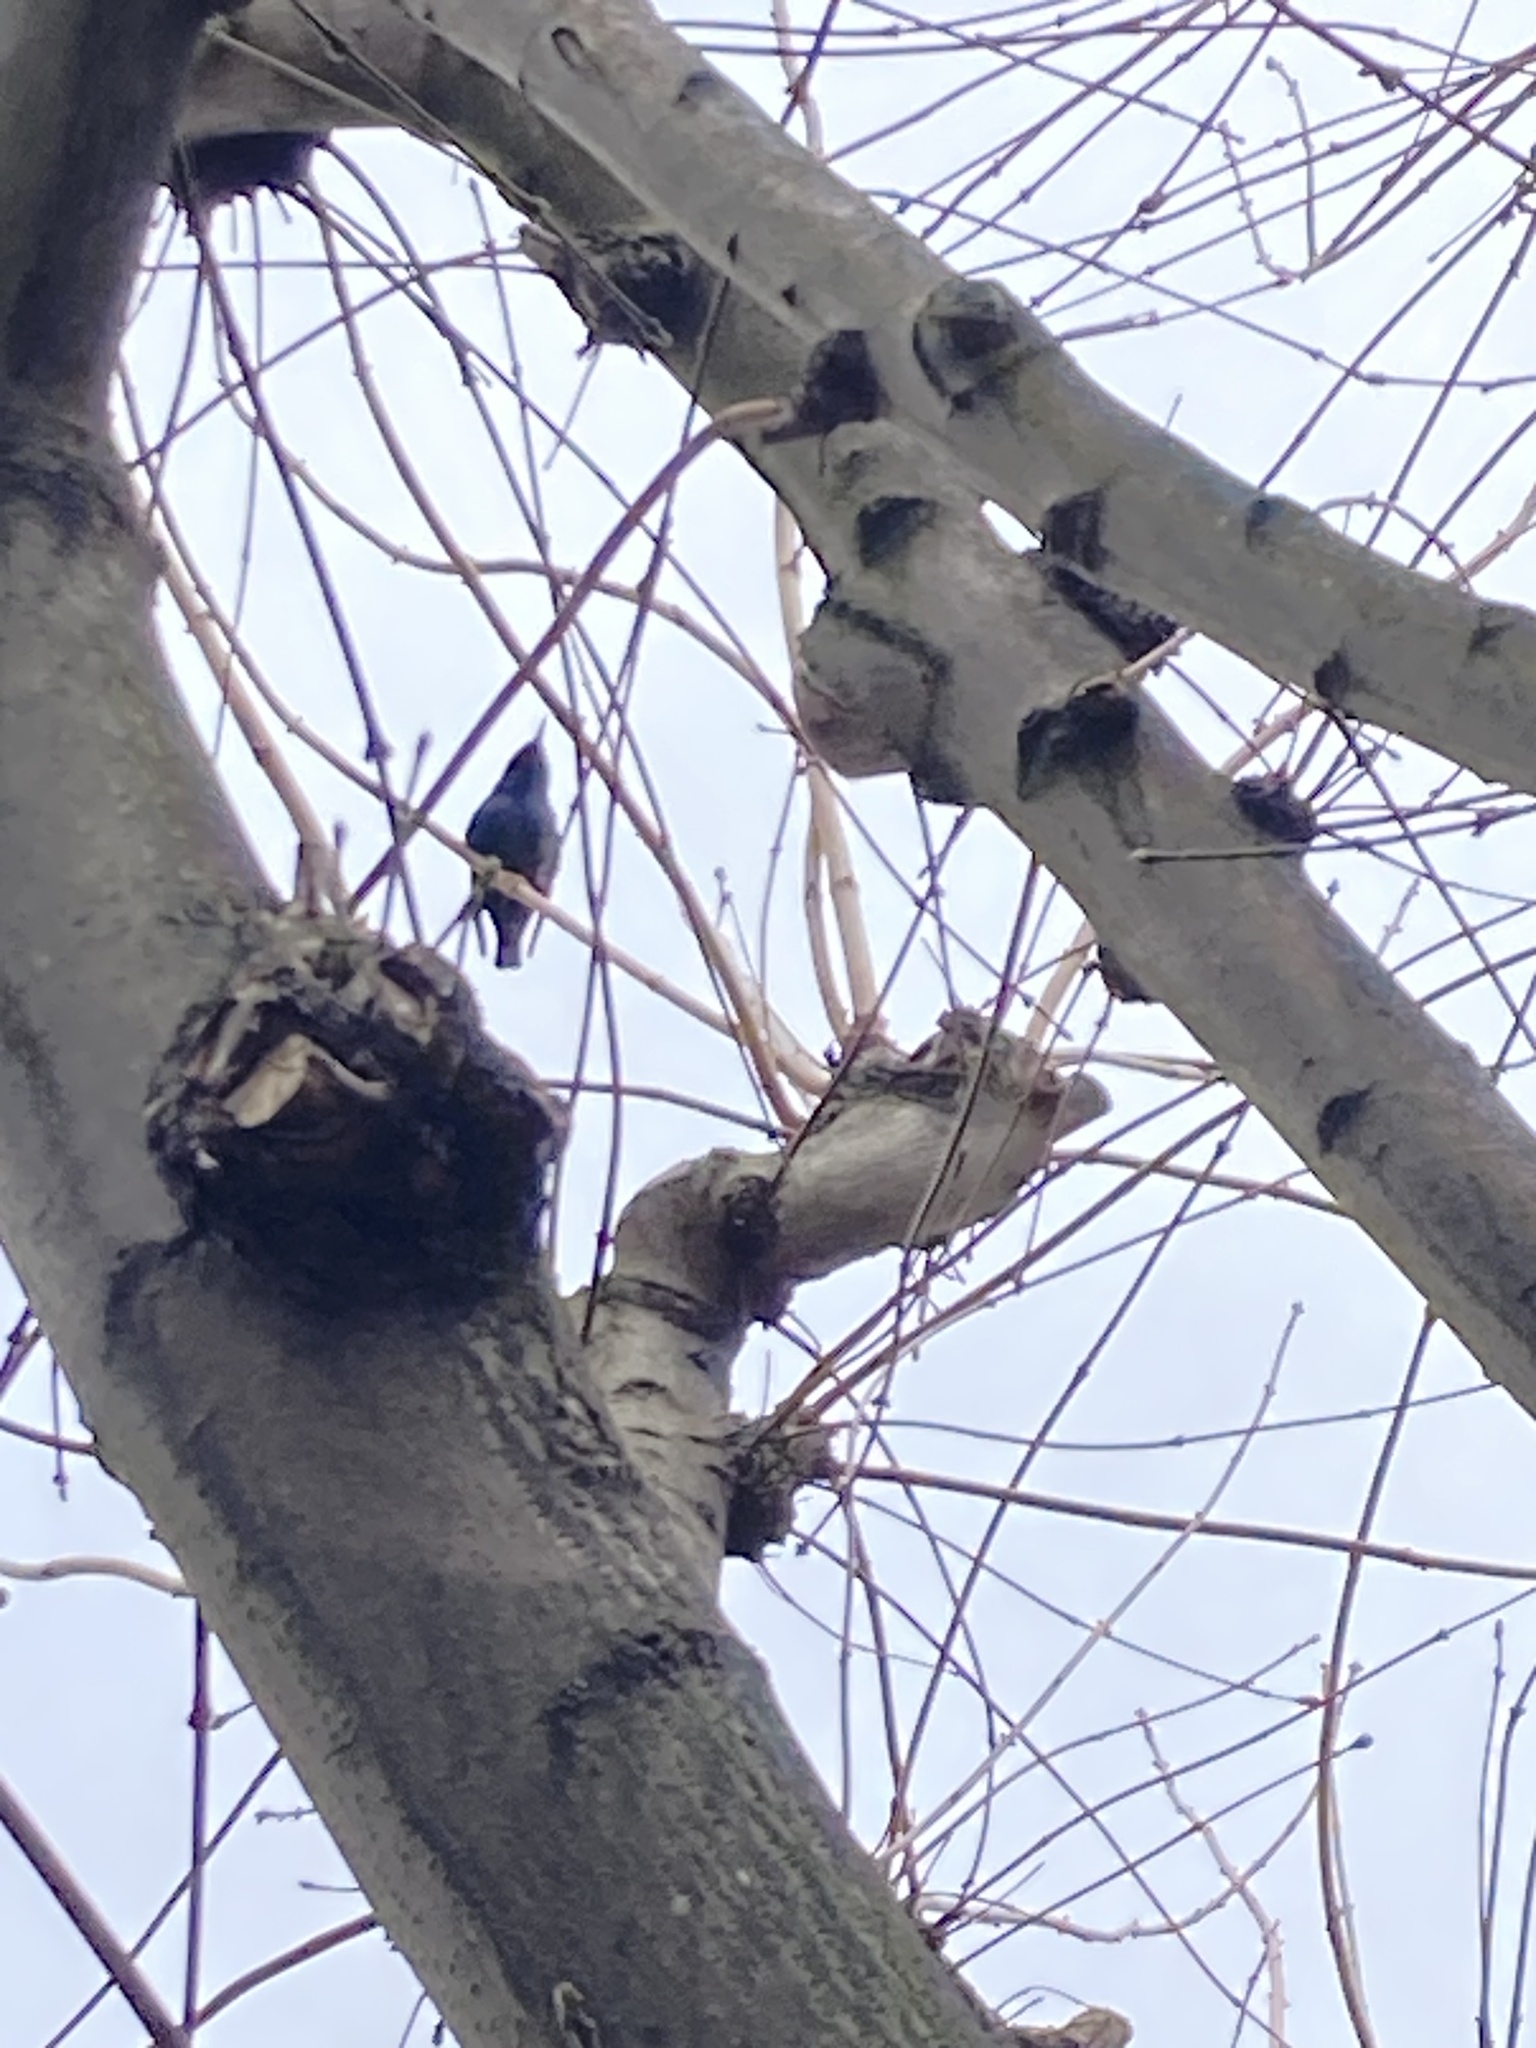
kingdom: Animalia
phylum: Chordata
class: Aves
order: Passeriformes
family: Sturnidae
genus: Sturnus
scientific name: Sturnus vulgaris
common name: Common starling
